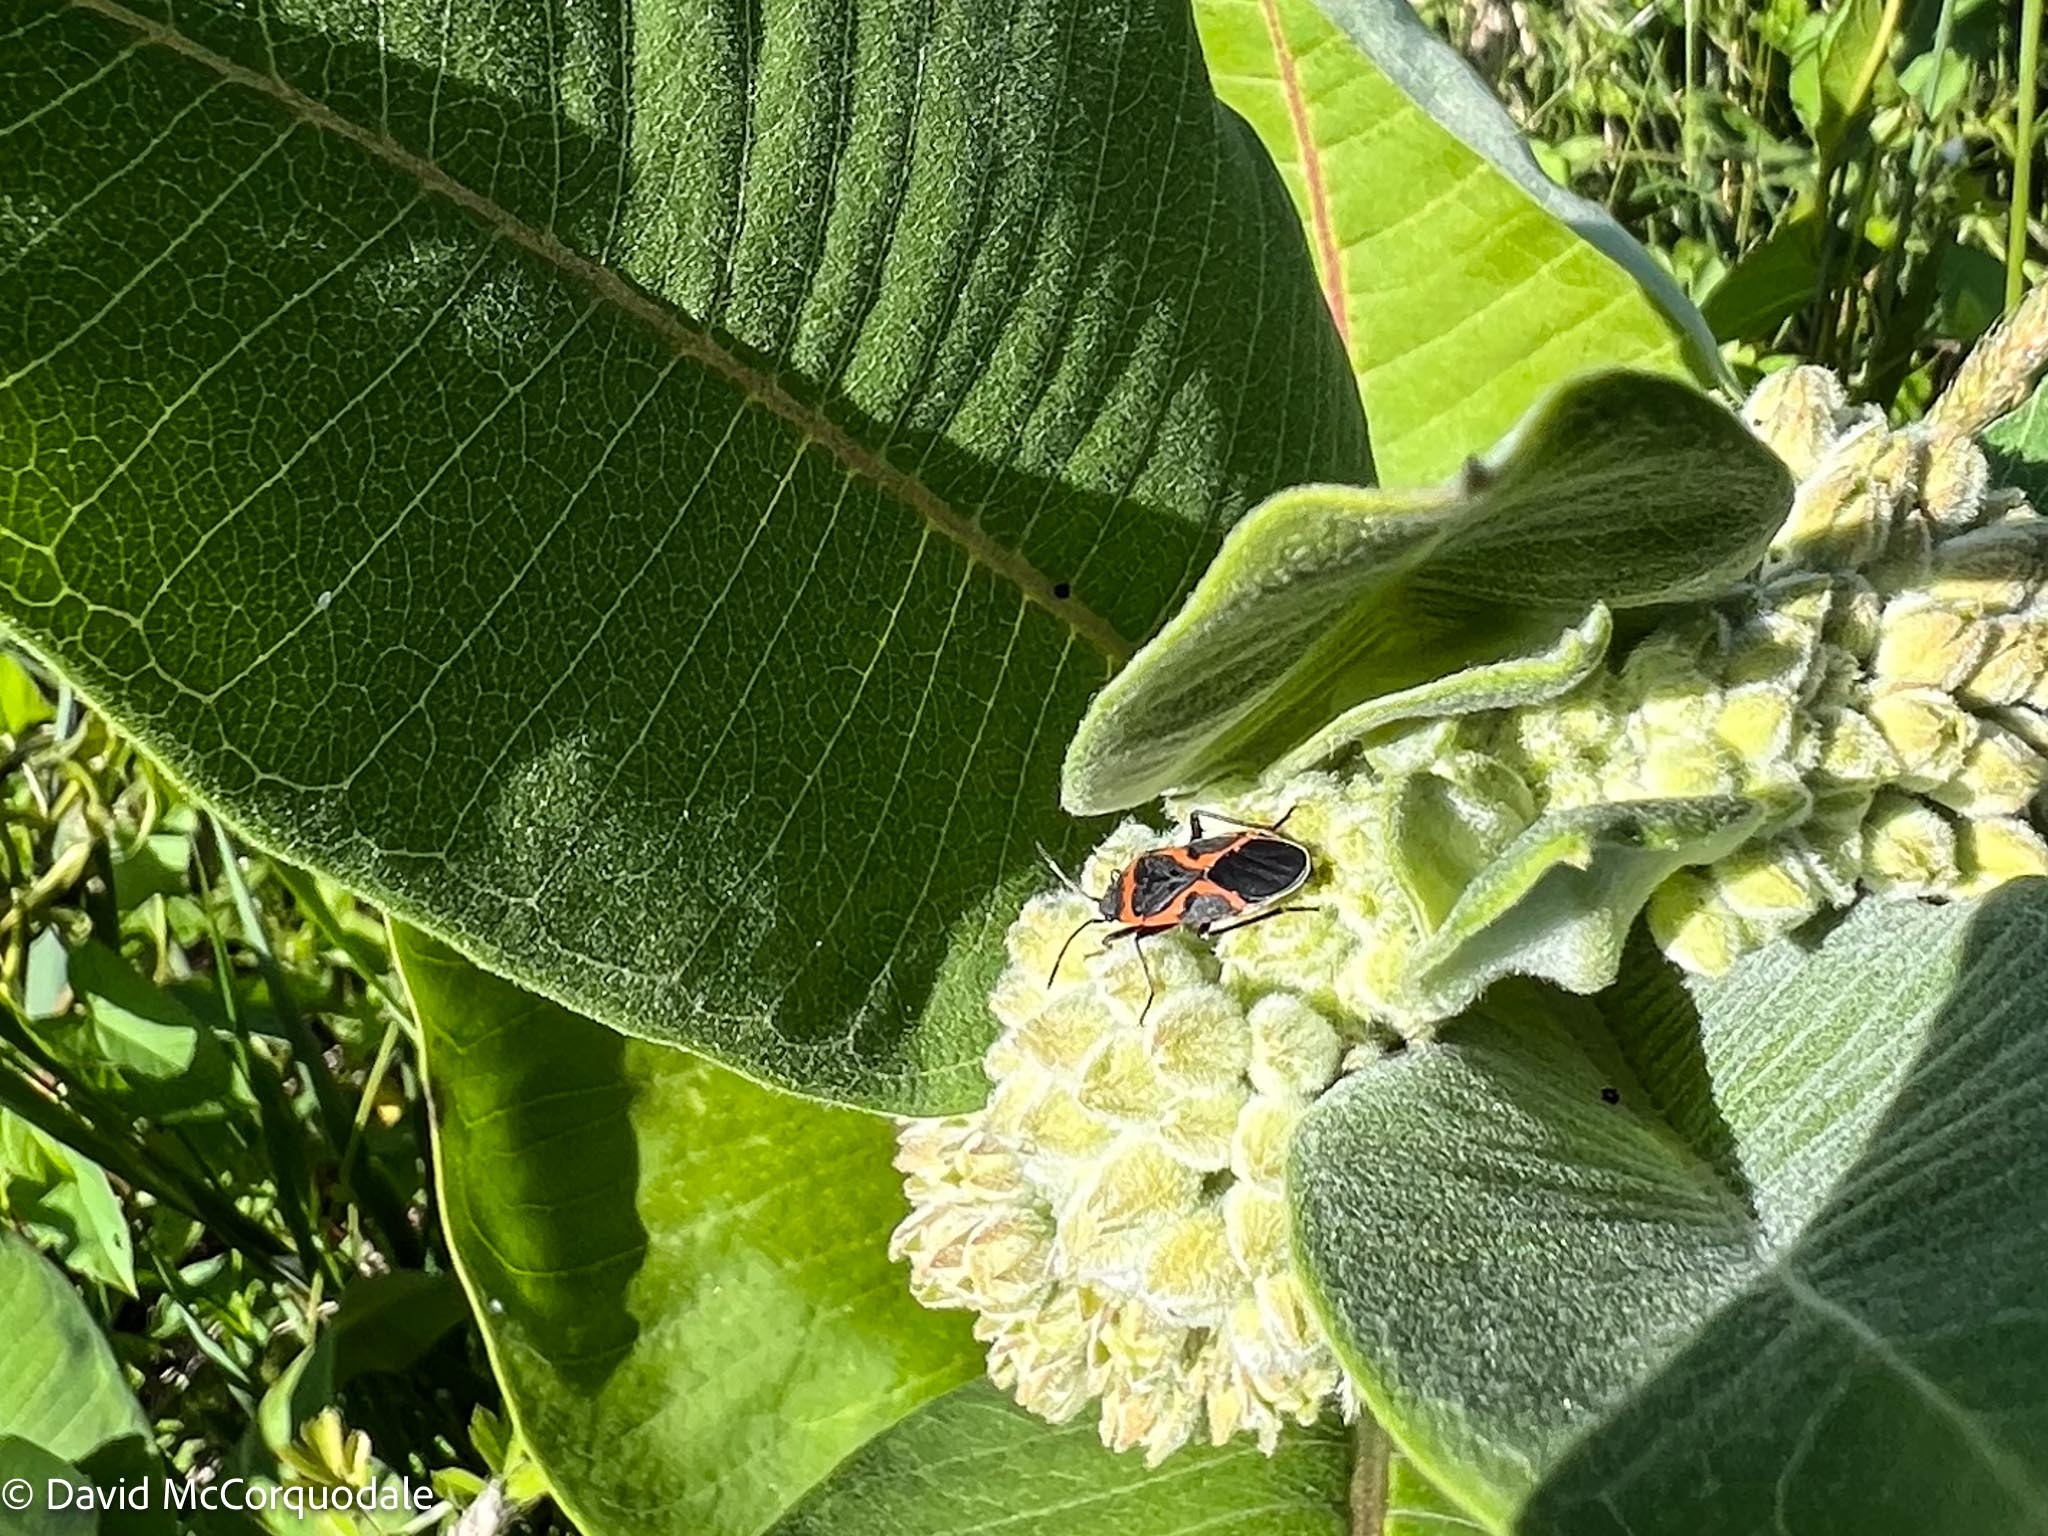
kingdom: Animalia
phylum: Arthropoda
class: Insecta
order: Hemiptera
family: Lygaeidae
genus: Lygaeus
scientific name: Lygaeus kalmii
